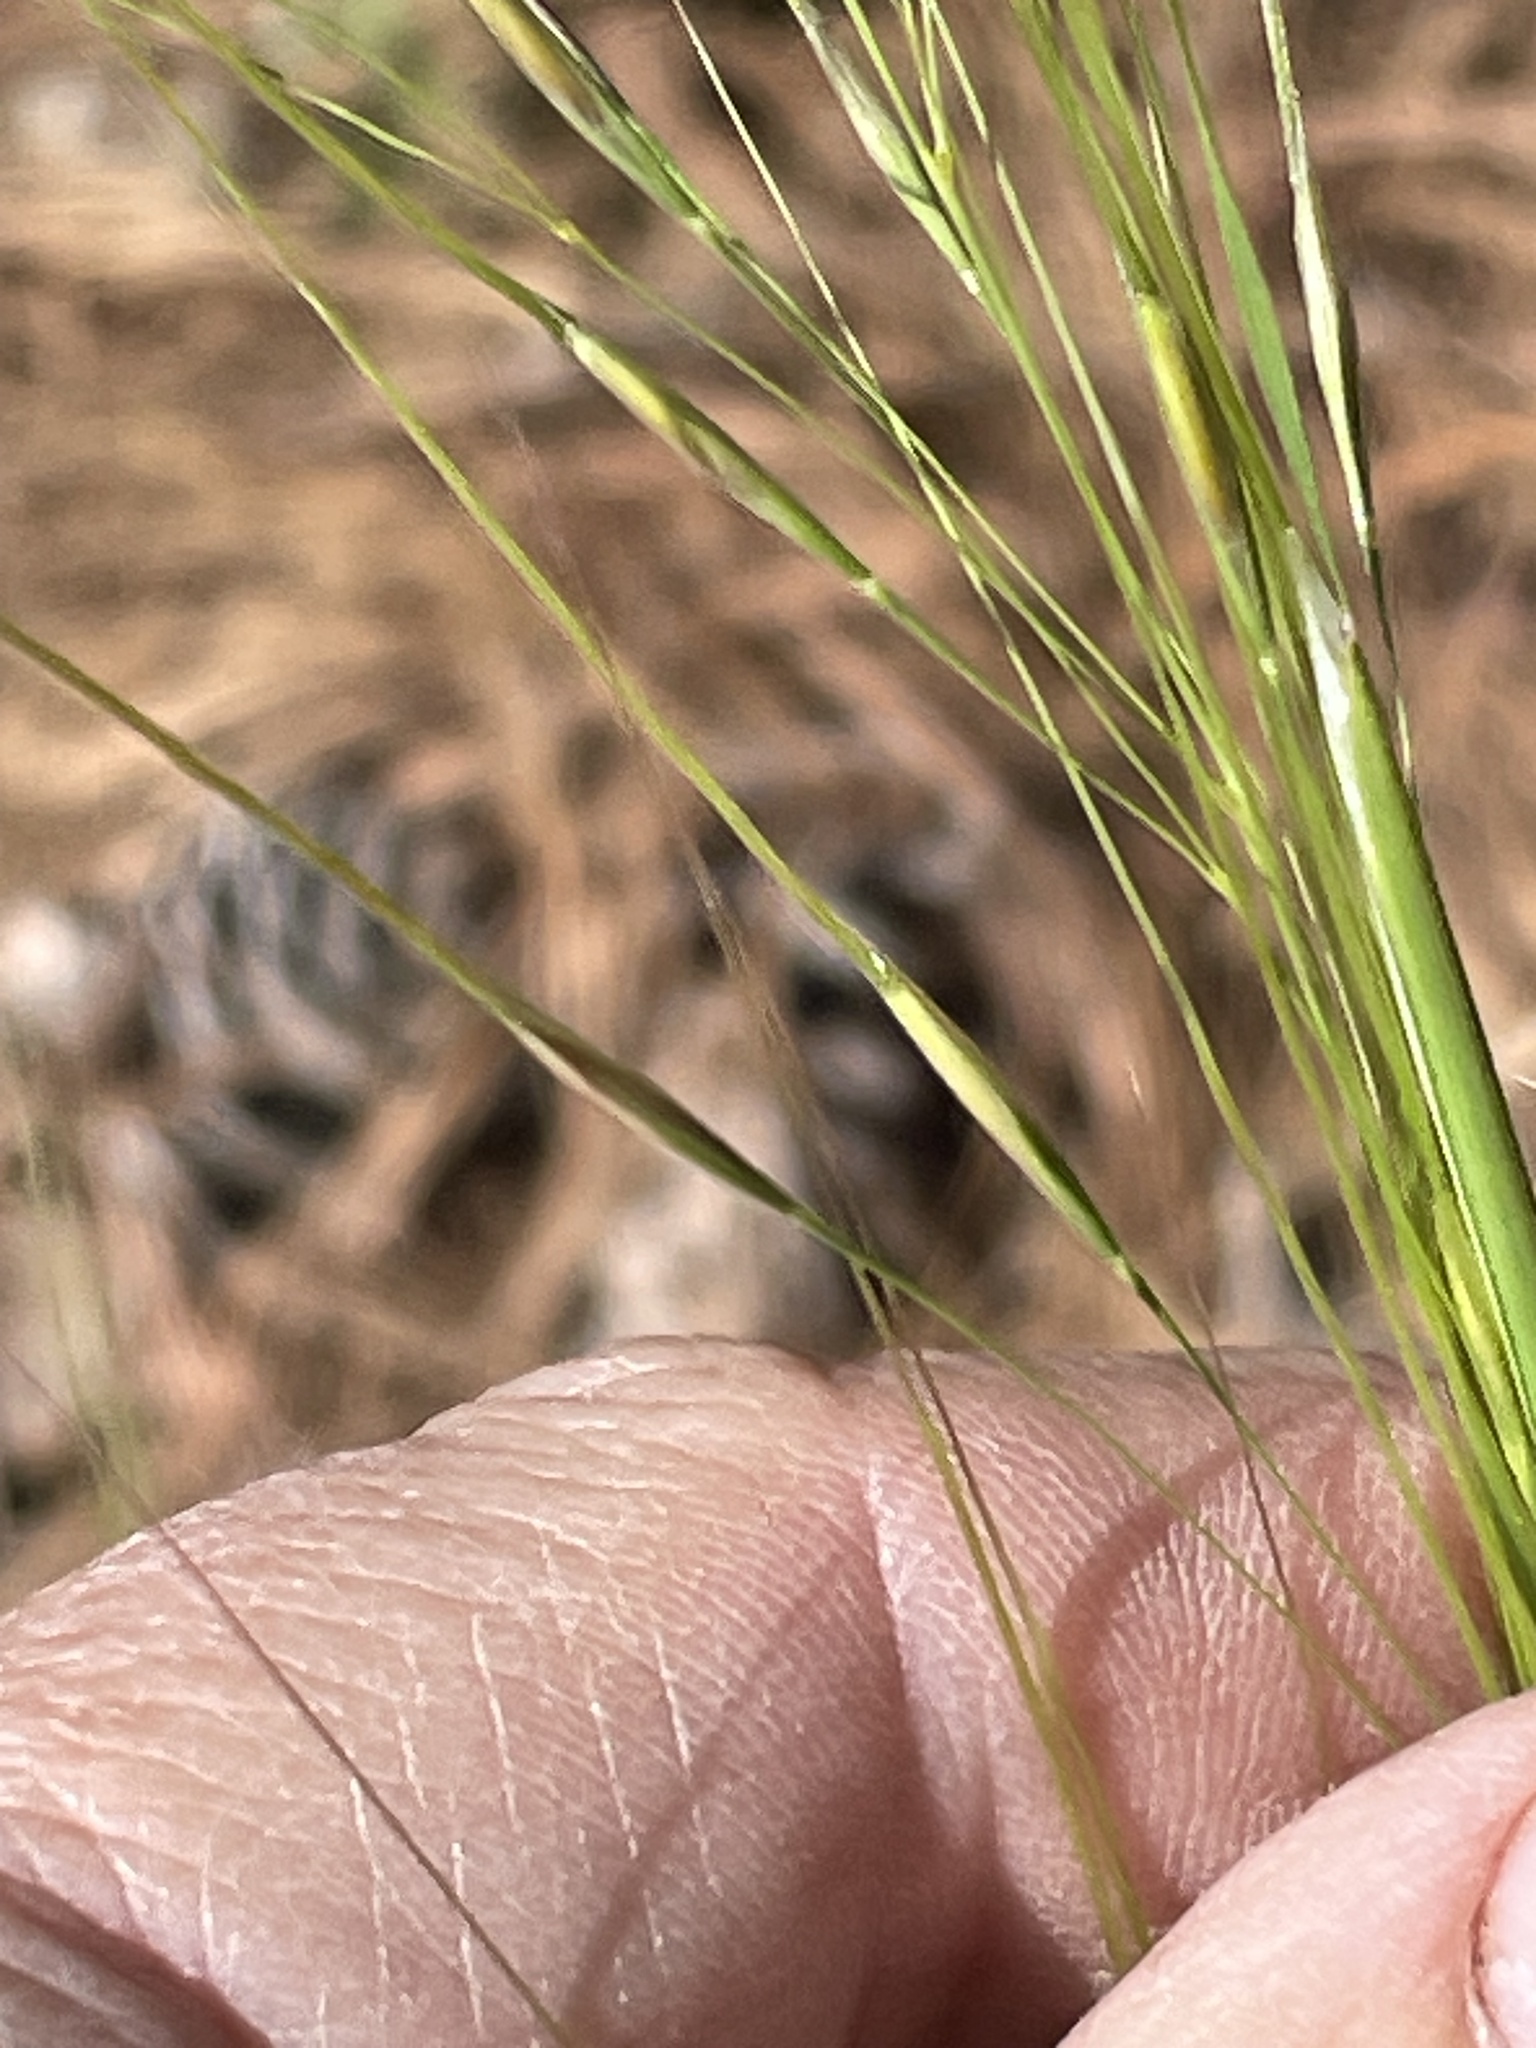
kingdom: Plantae
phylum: Tracheophyta
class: Liliopsida
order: Poales
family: Poaceae
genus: Piptochaetium
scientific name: Piptochaetium avenaceum
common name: Black bunchgrass
